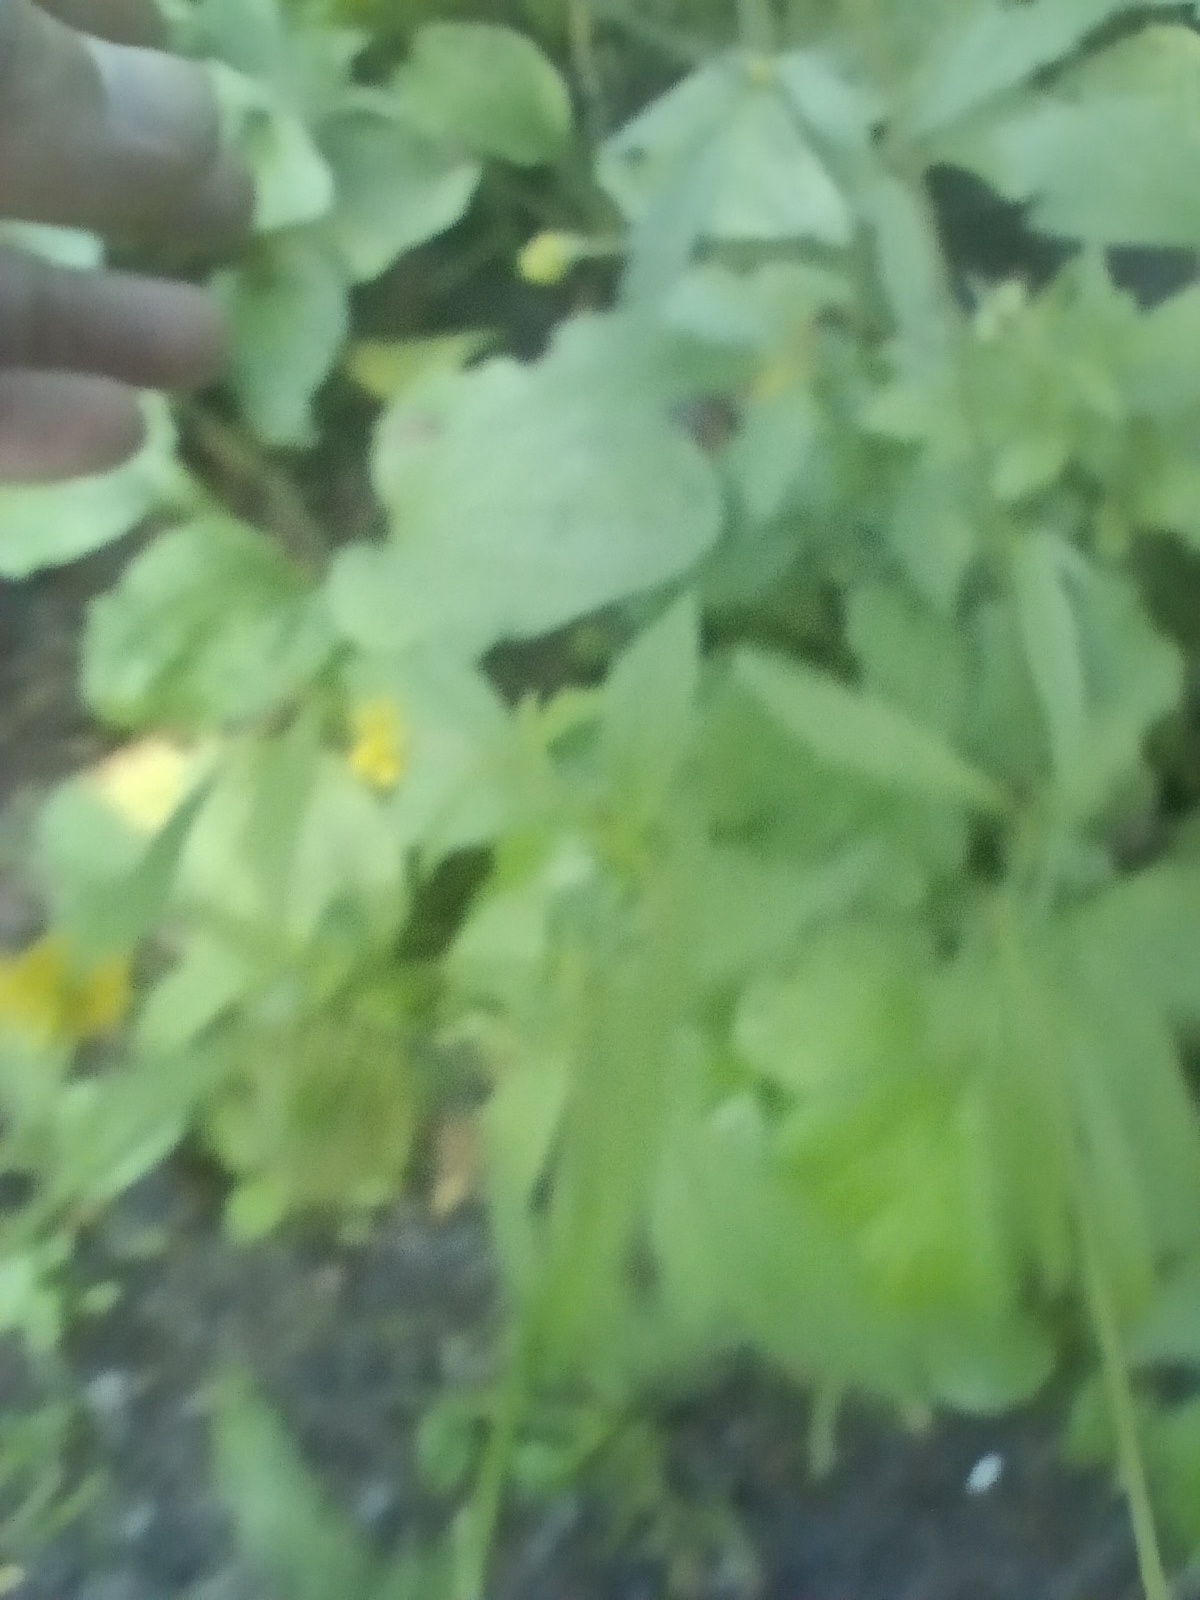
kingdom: Plantae
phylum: Tracheophyta
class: Magnoliopsida
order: Rosales
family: Rosaceae
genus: Geum
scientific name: Geum aleppicum
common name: Yellow avens
